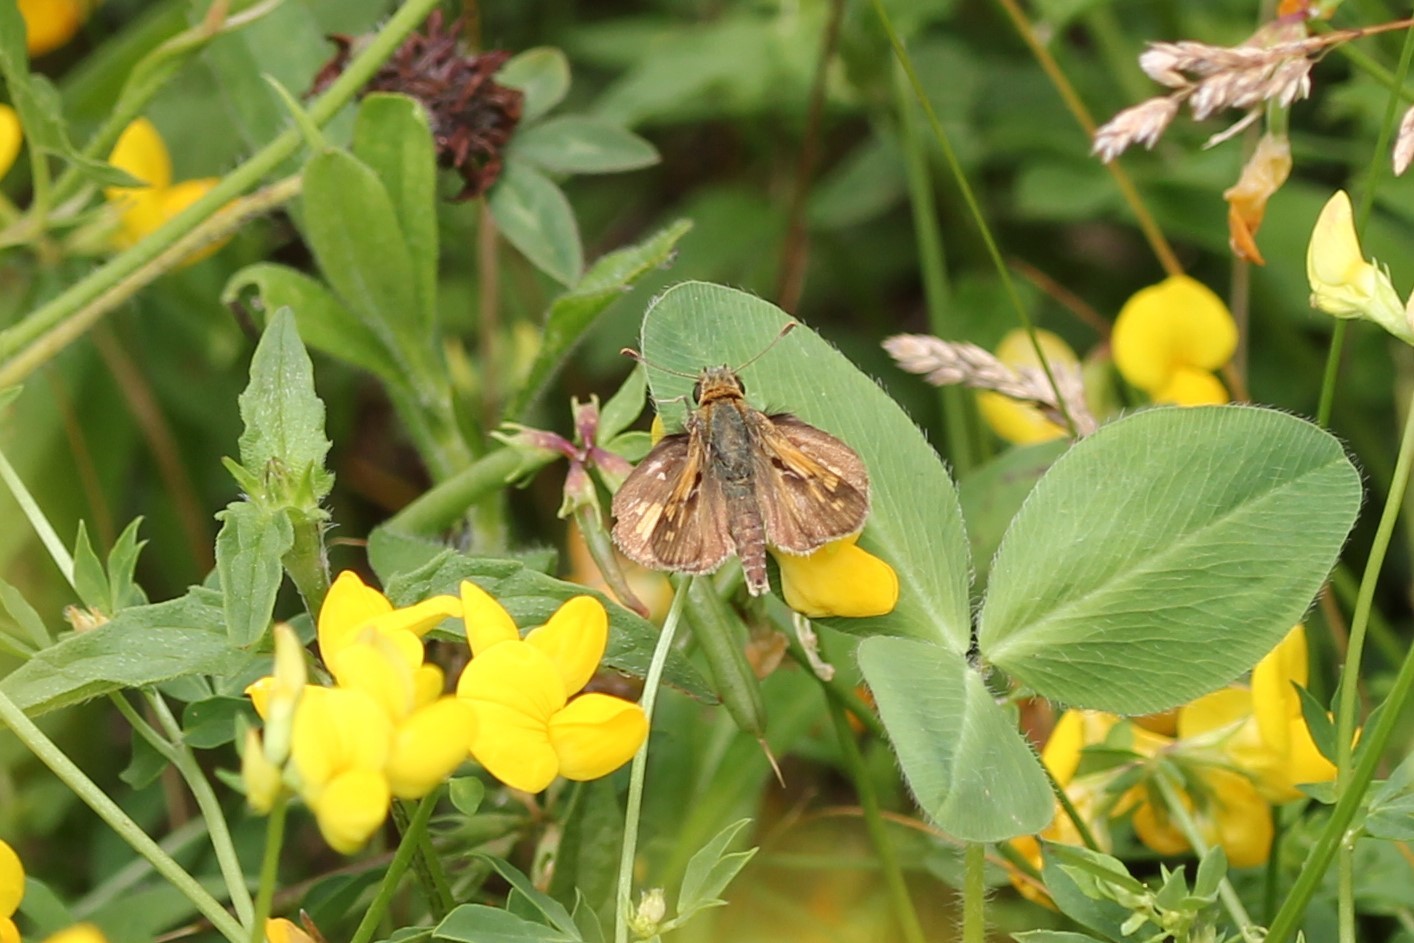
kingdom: Animalia
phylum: Arthropoda
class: Insecta
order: Lepidoptera
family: Hesperiidae
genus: Polites
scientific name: Polites coras
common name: Peck's skipper
